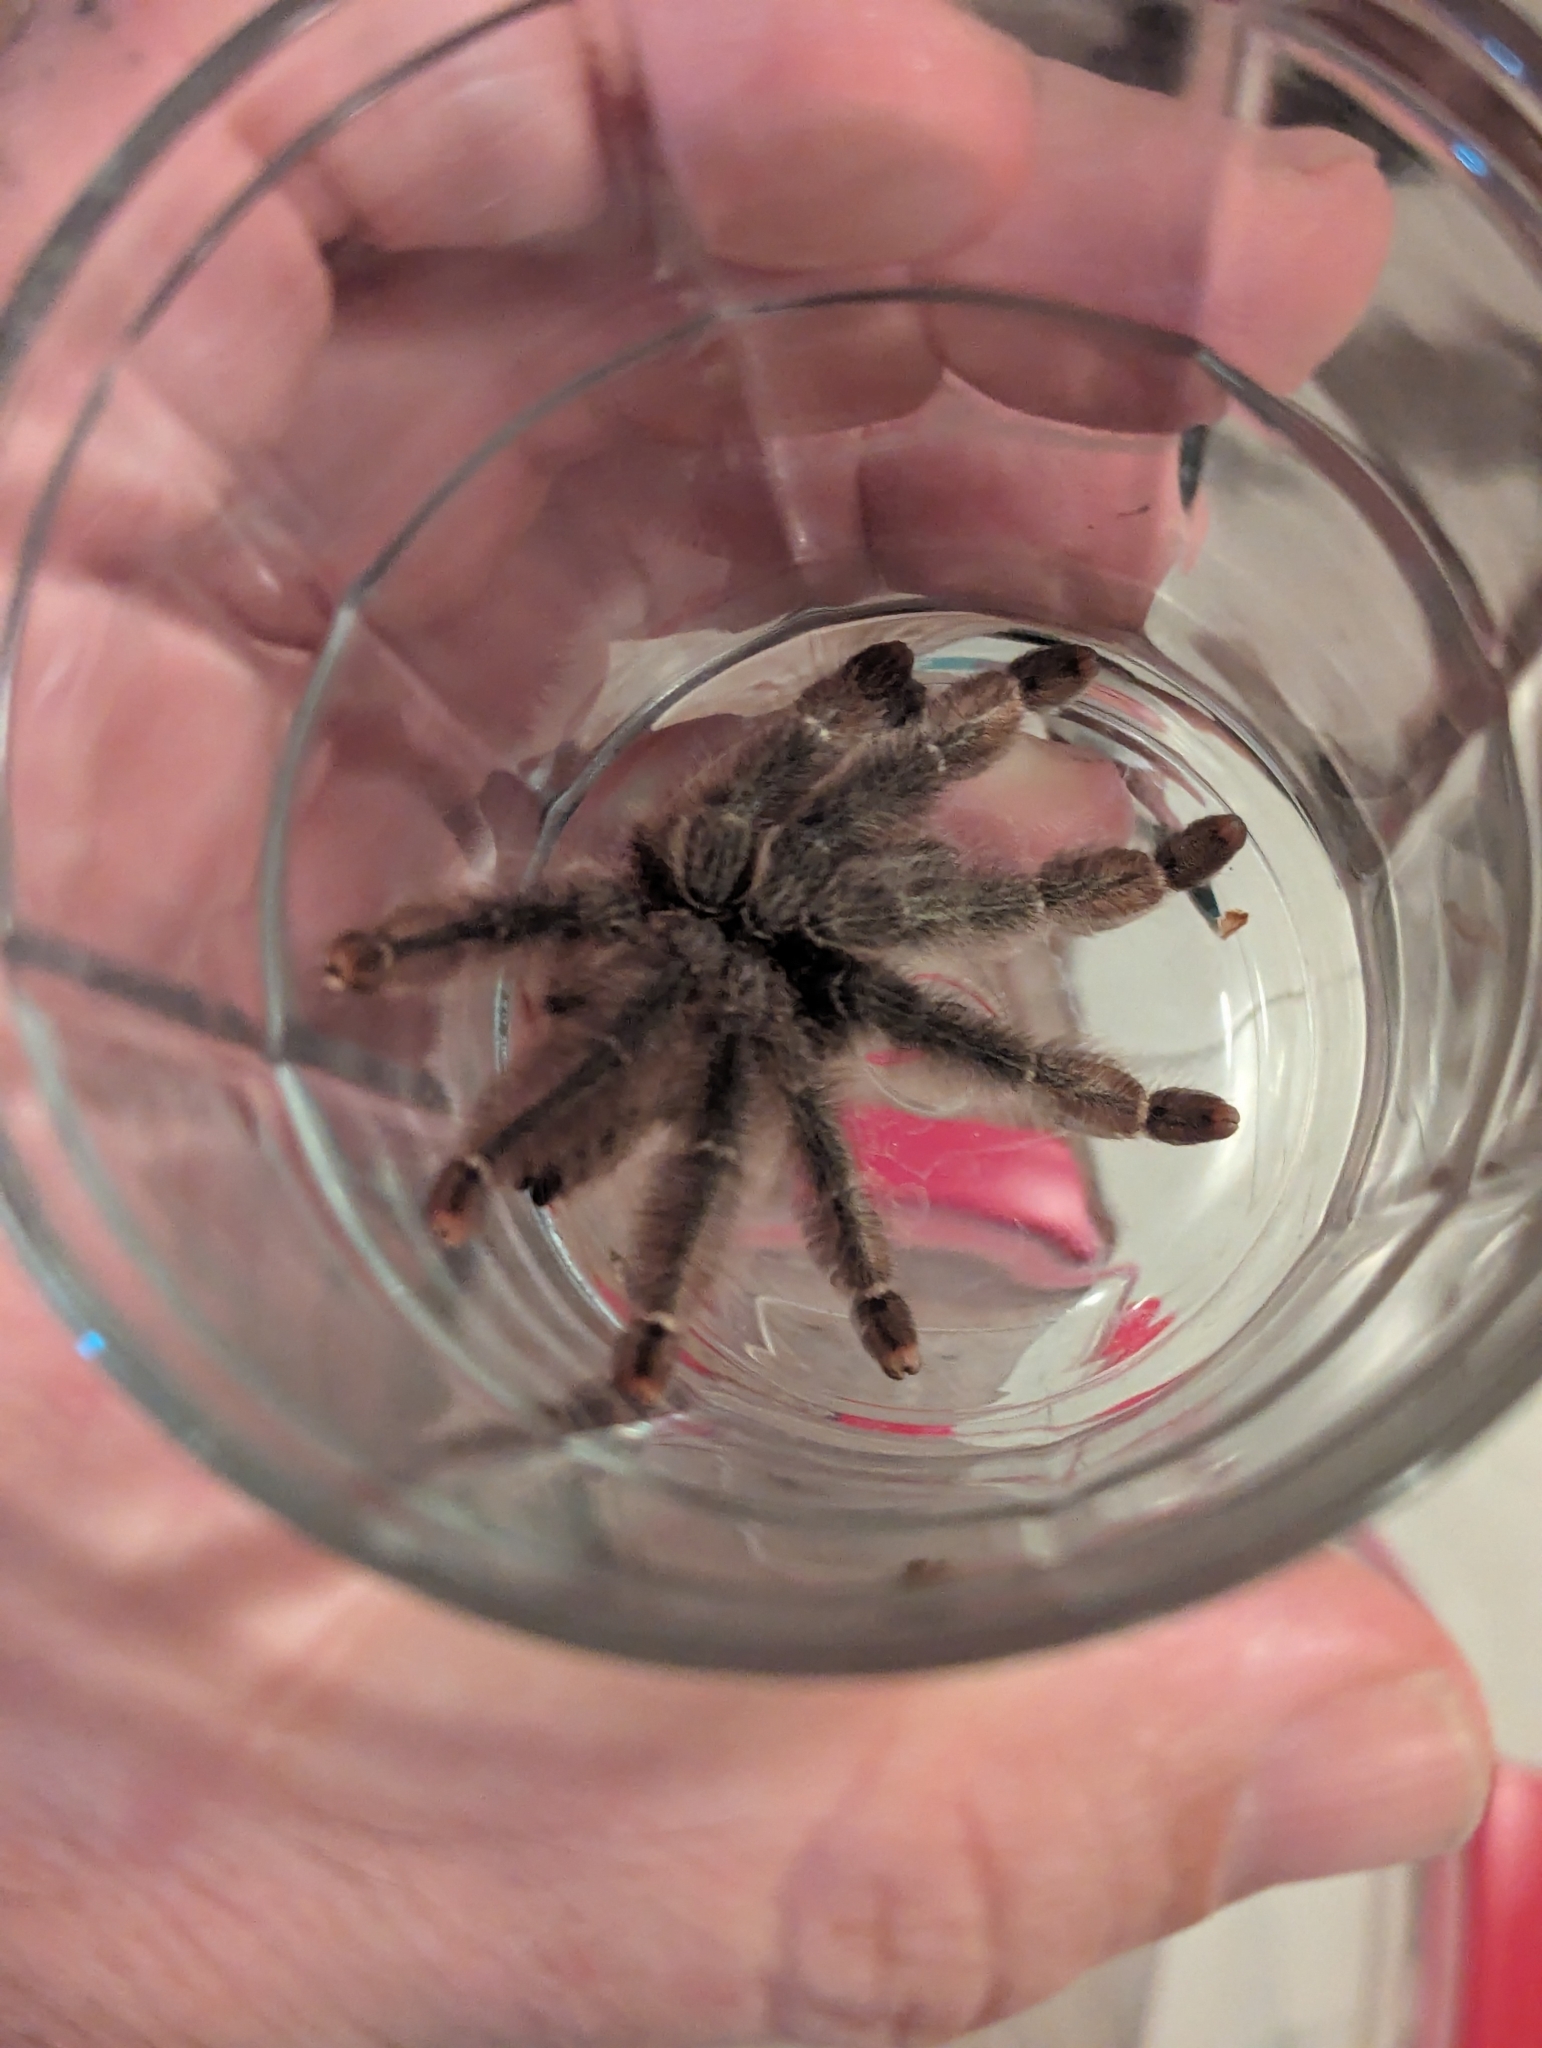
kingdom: Animalia
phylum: Arthropoda
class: Arachnida
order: Araneae
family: Theraphosidae
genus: Psalmopoeus
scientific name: Psalmopoeus pulcher
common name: Tarantula spiders
